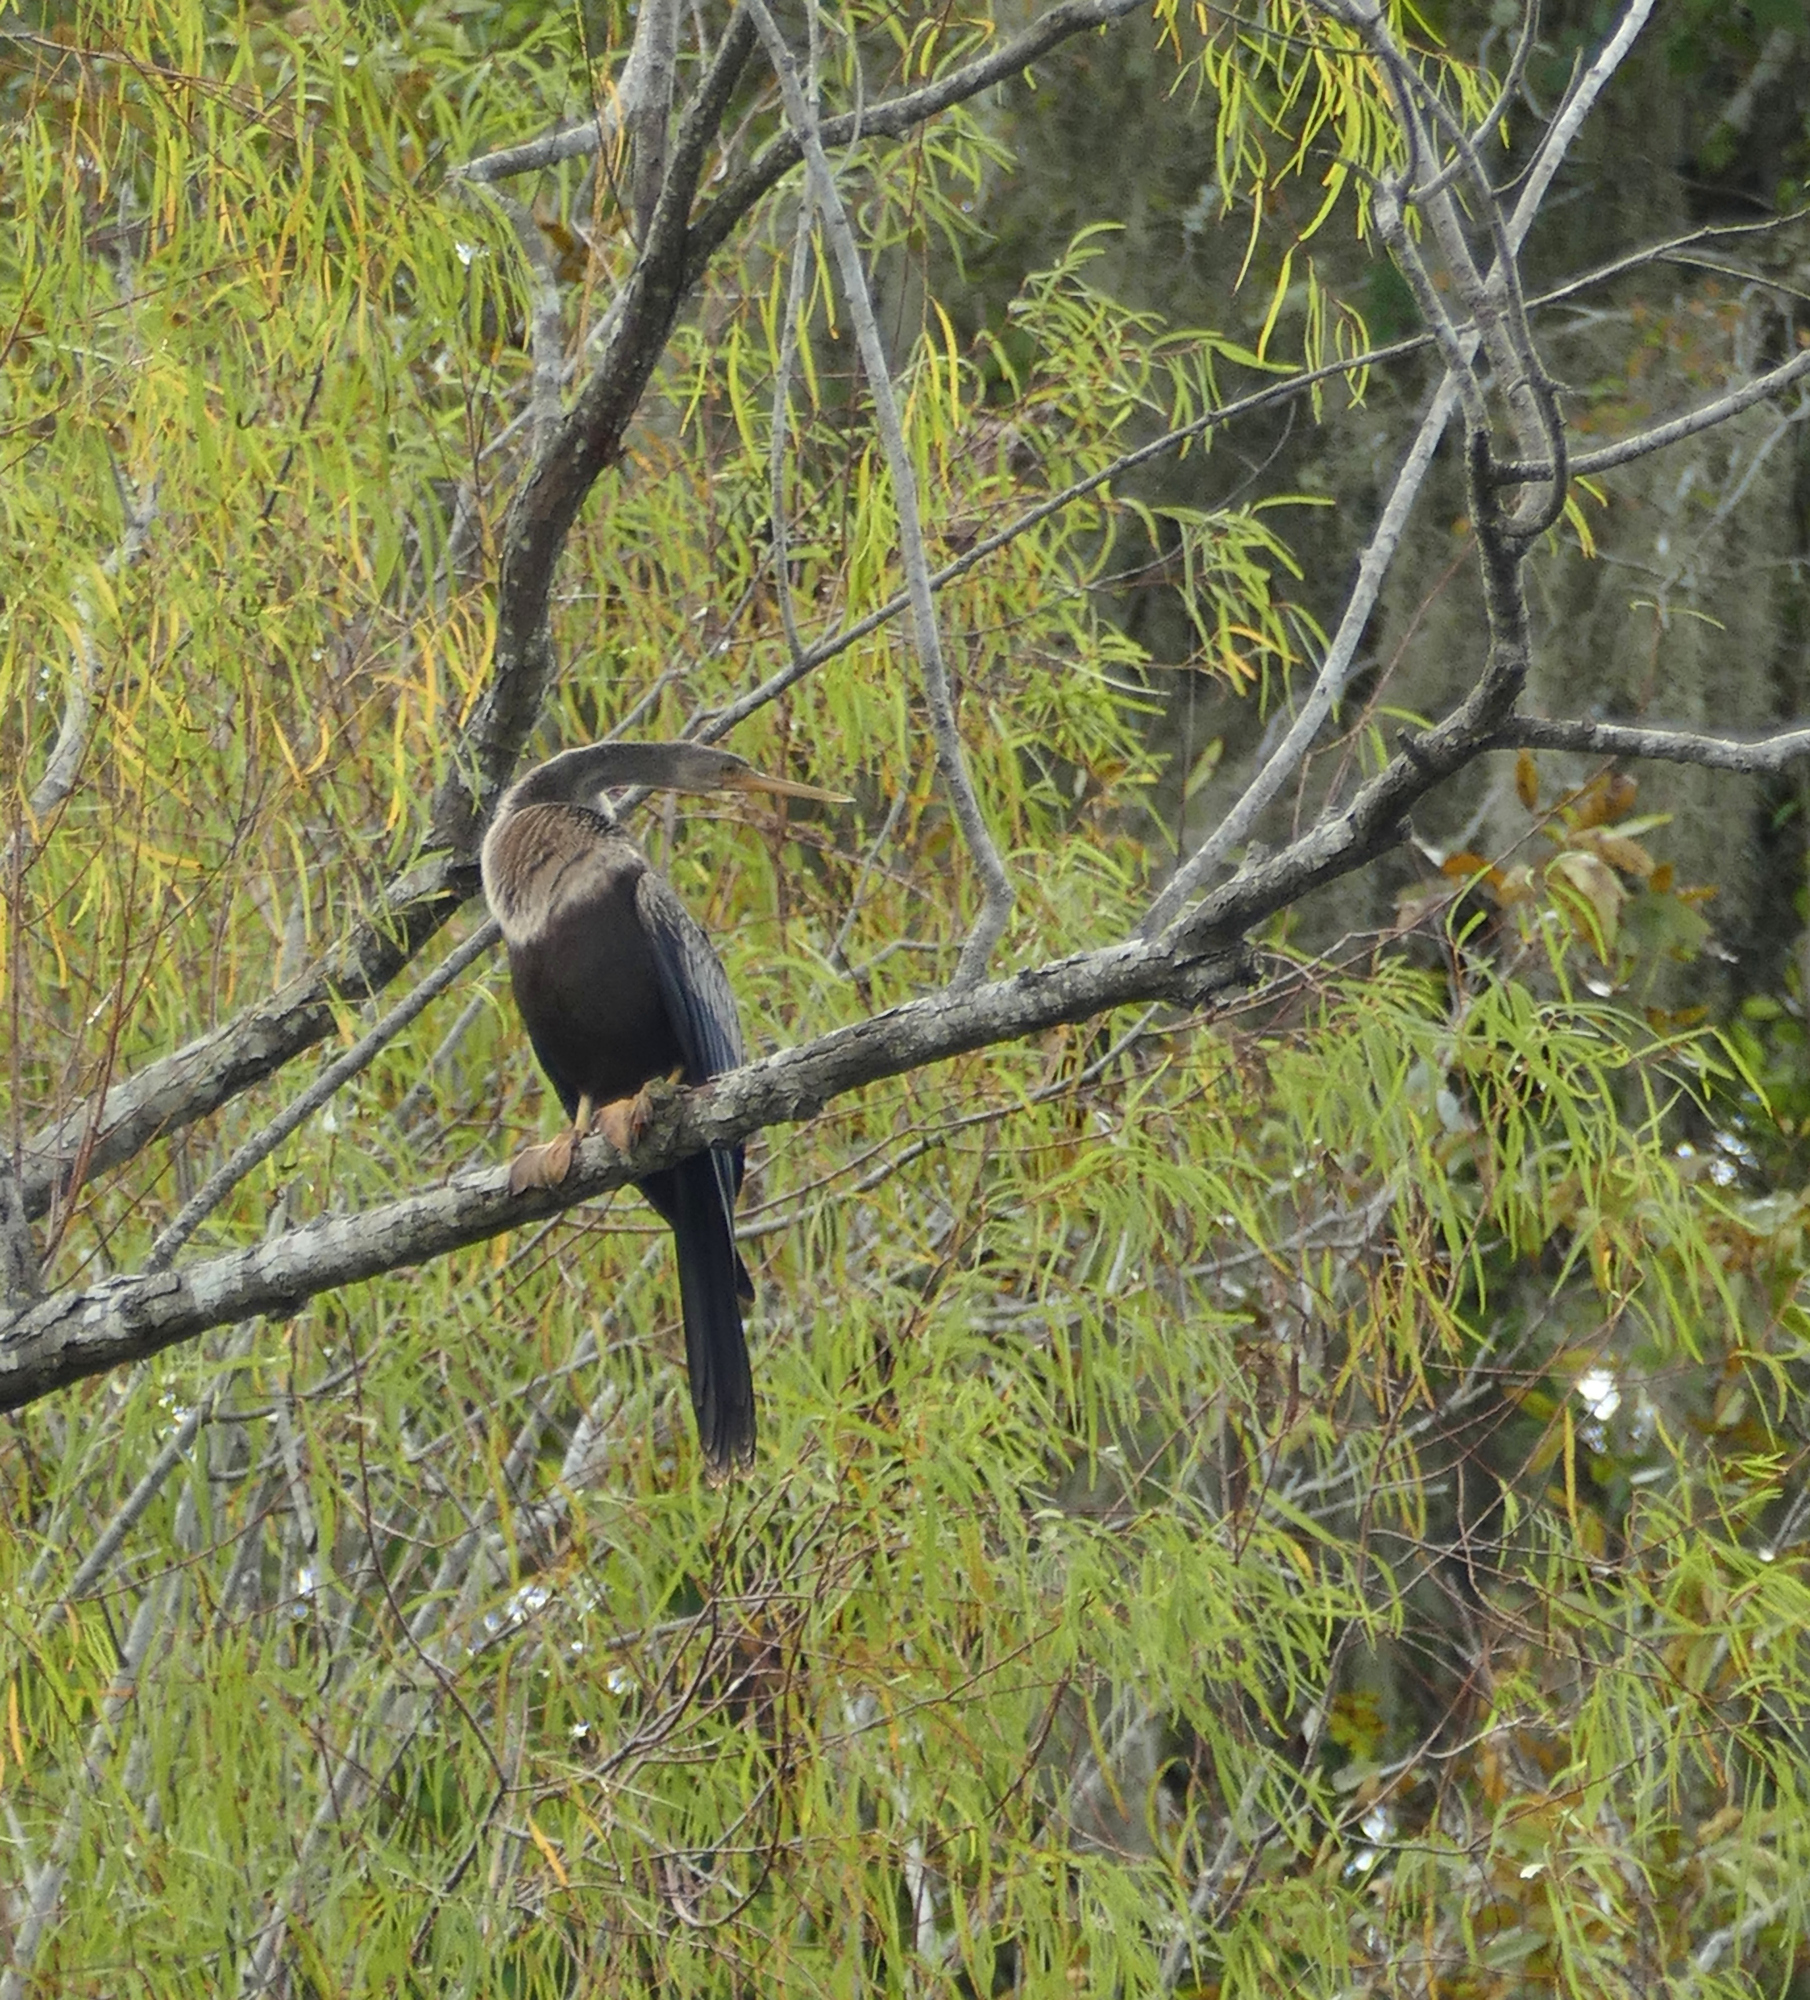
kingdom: Animalia
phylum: Chordata
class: Aves
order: Suliformes
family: Anhingidae
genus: Anhinga
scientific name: Anhinga anhinga
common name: Anhinga
